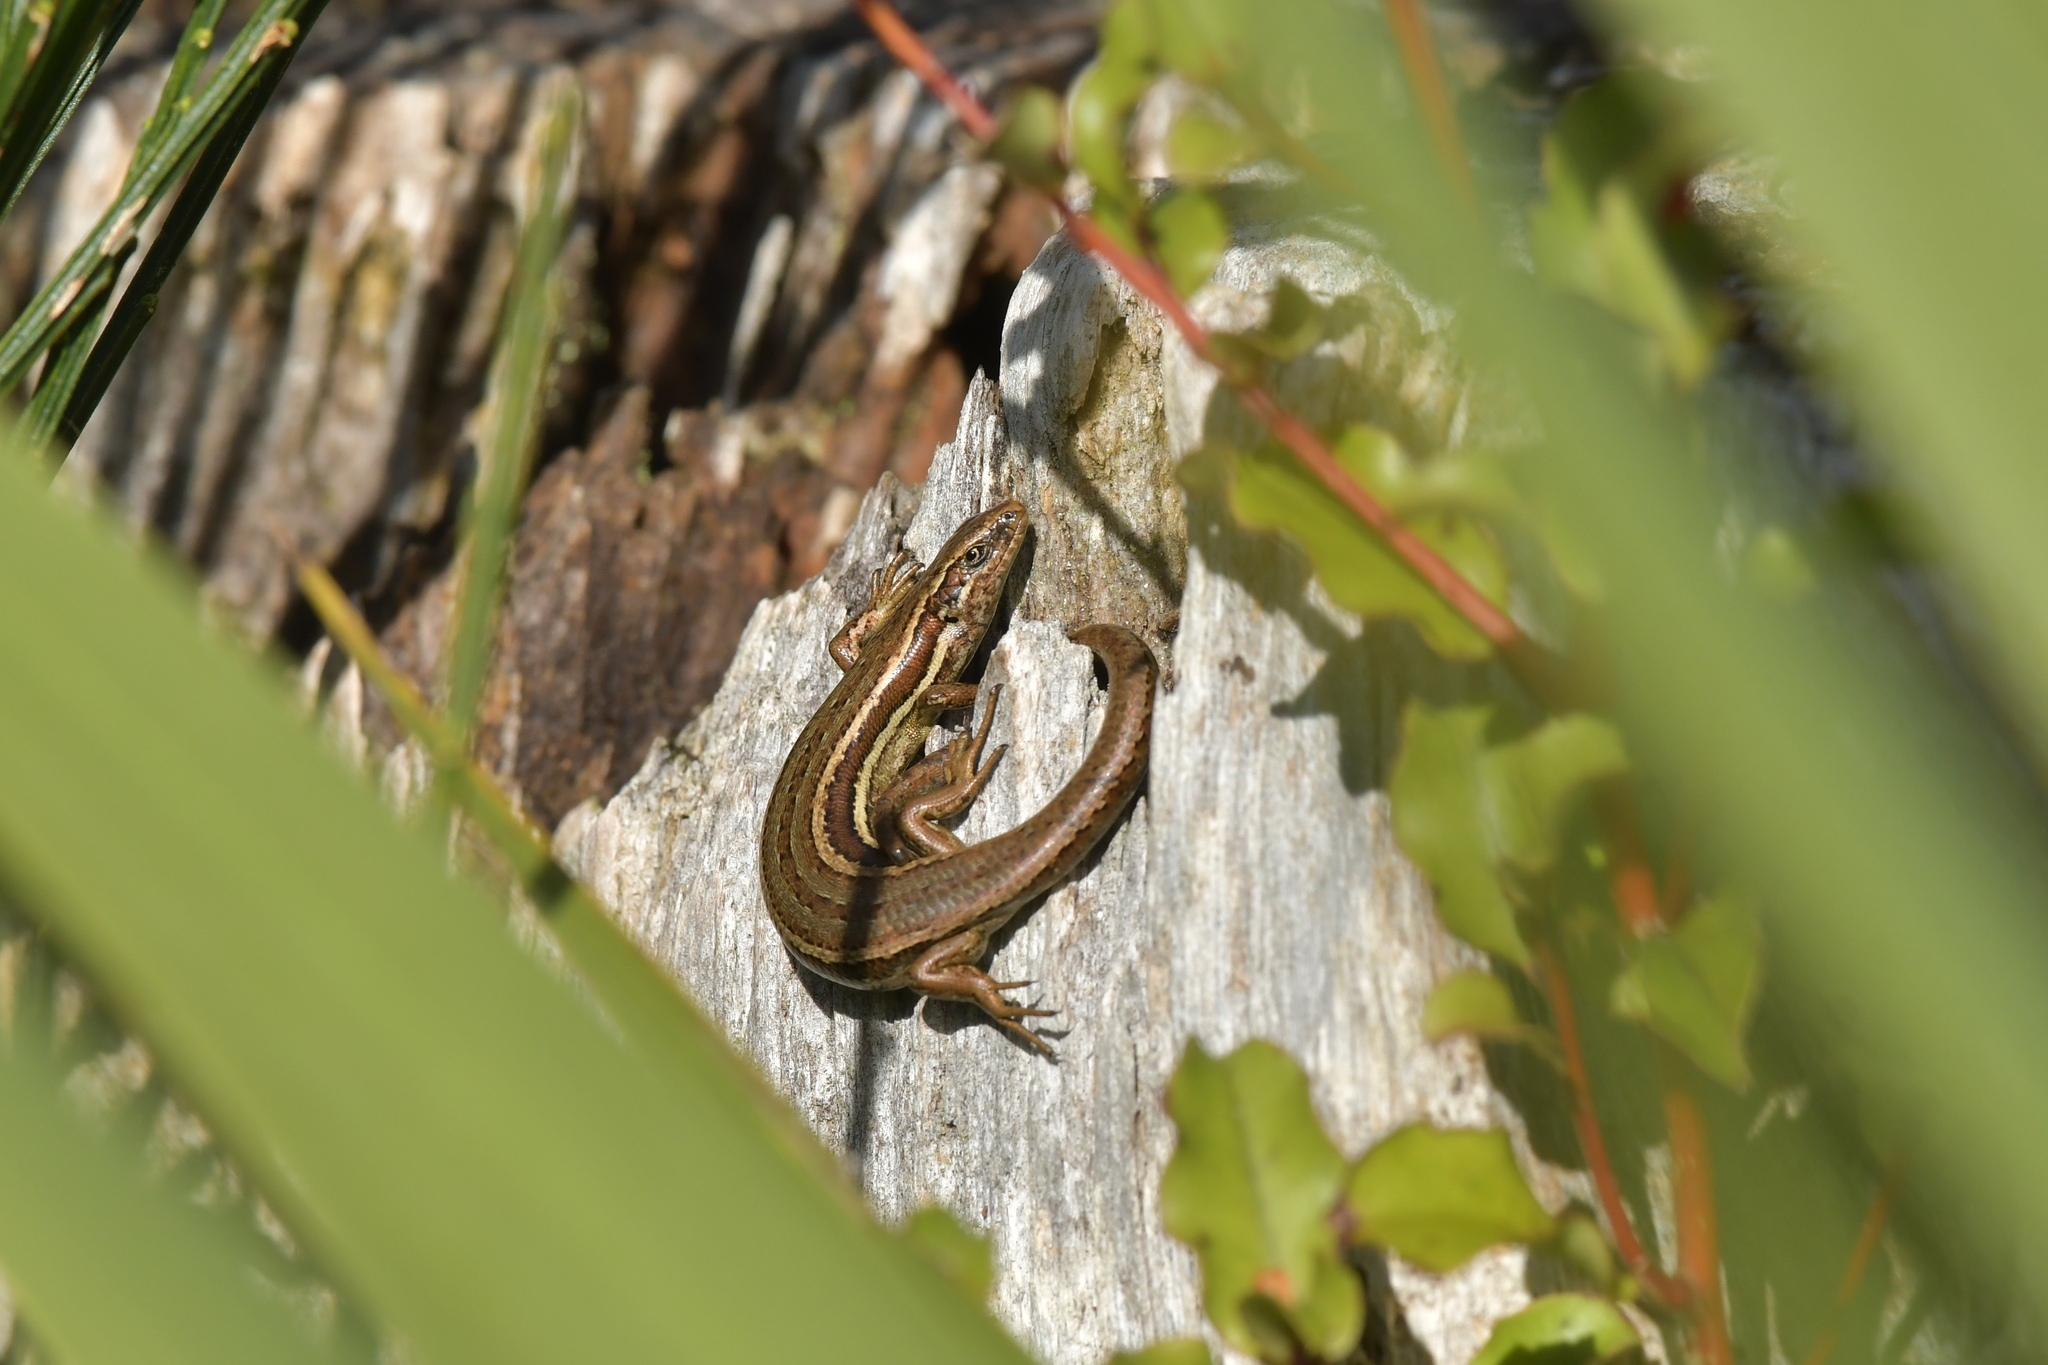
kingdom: Animalia
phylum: Chordata
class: Squamata
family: Scincidae
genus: Oligosoma
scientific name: Oligosoma polychroma
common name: Common new zealand skink
